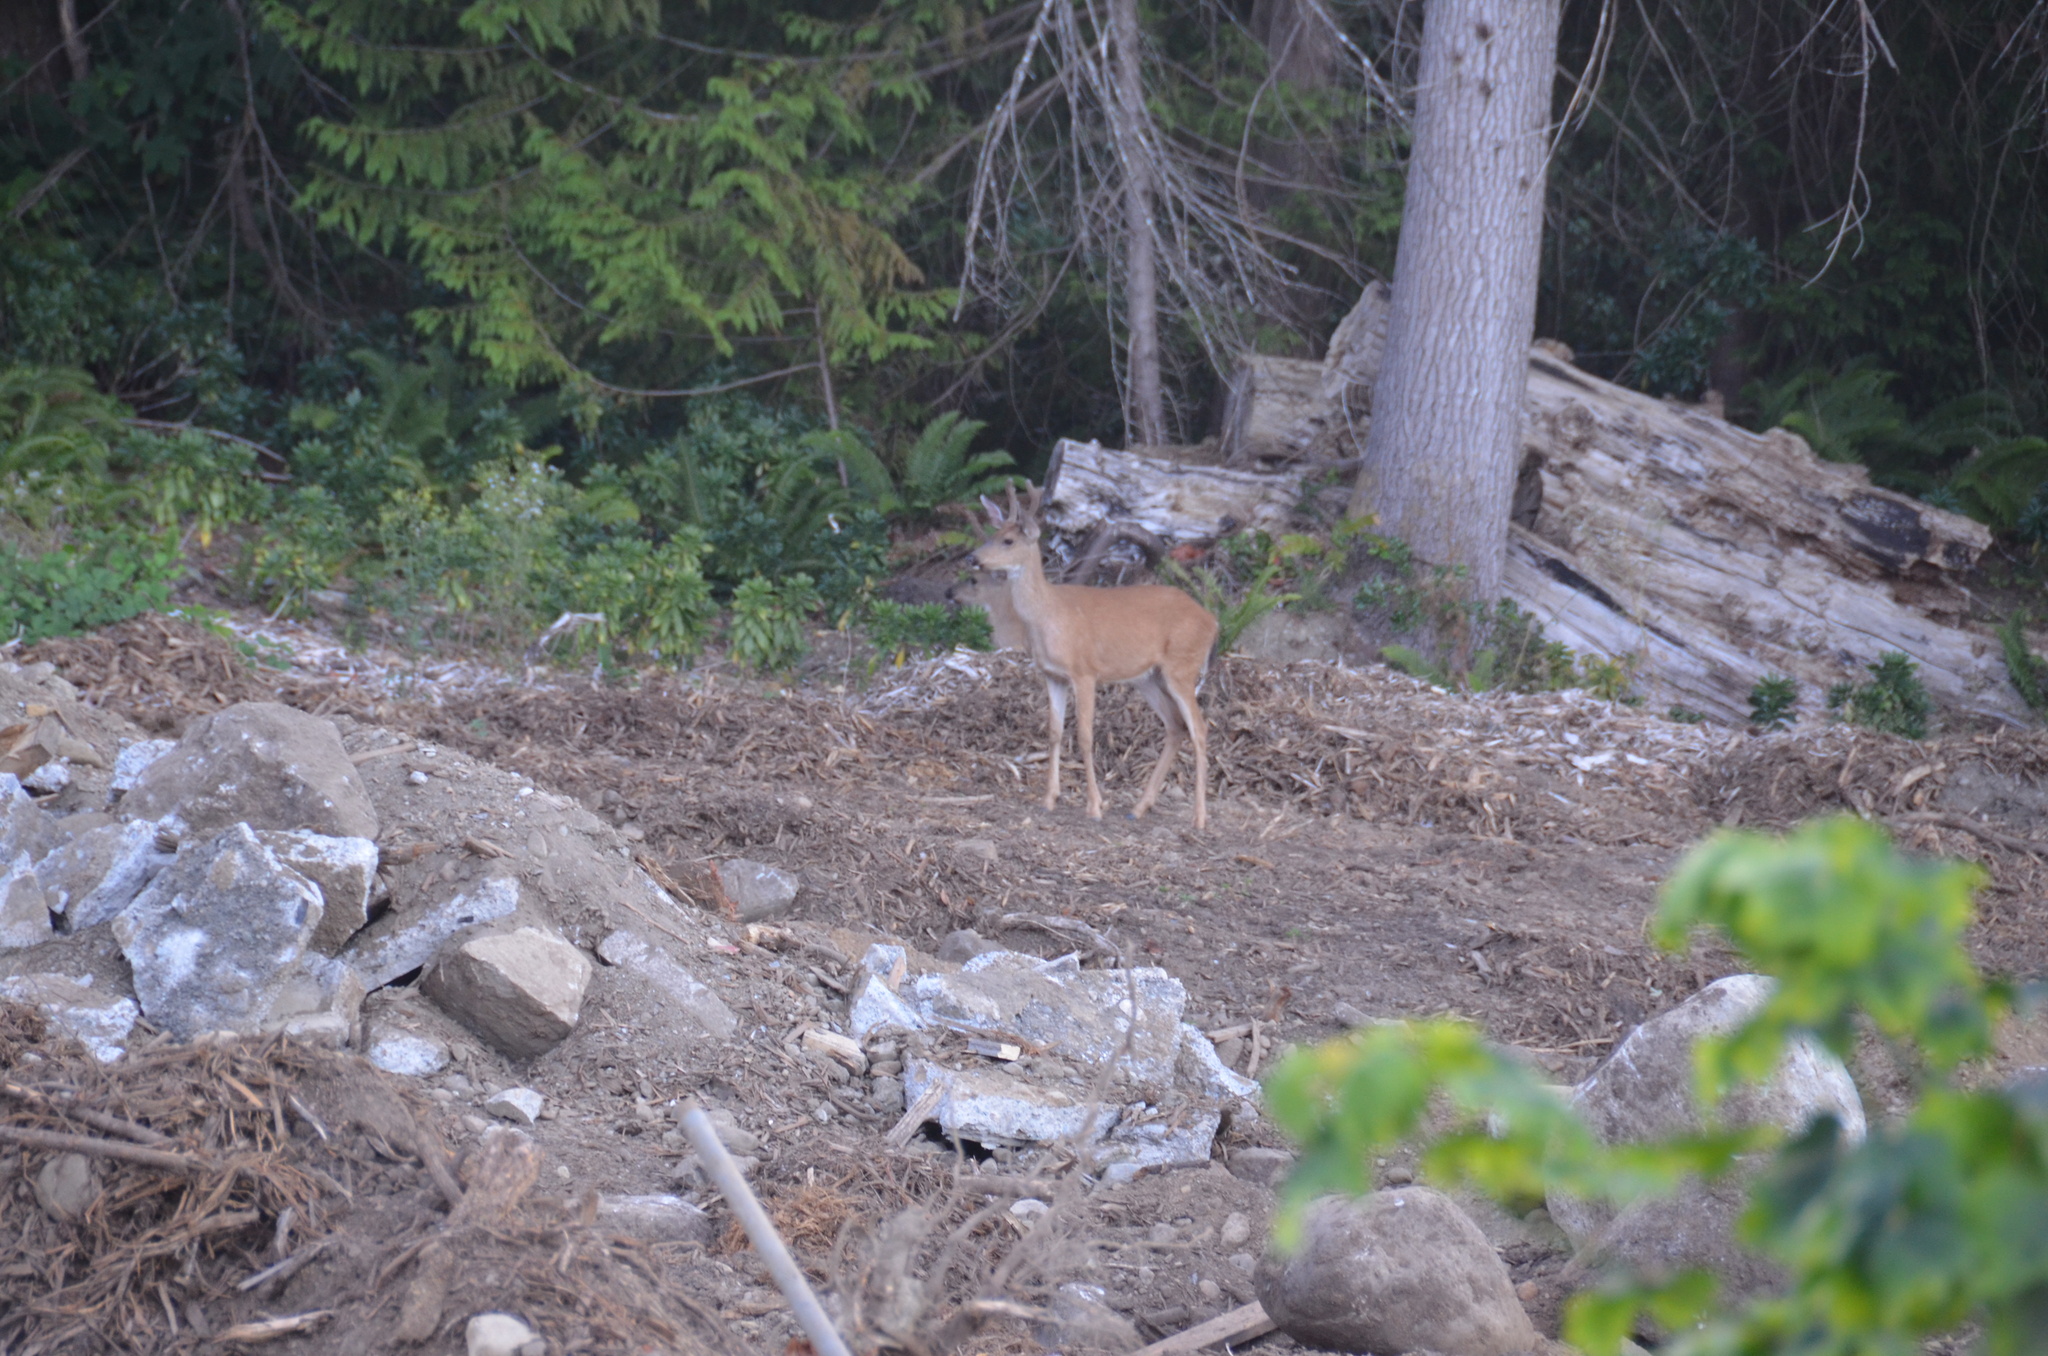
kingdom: Animalia
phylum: Chordata
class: Mammalia
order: Artiodactyla
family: Cervidae
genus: Odocoileus
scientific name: Odocoileus hemionus
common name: Mule deer
